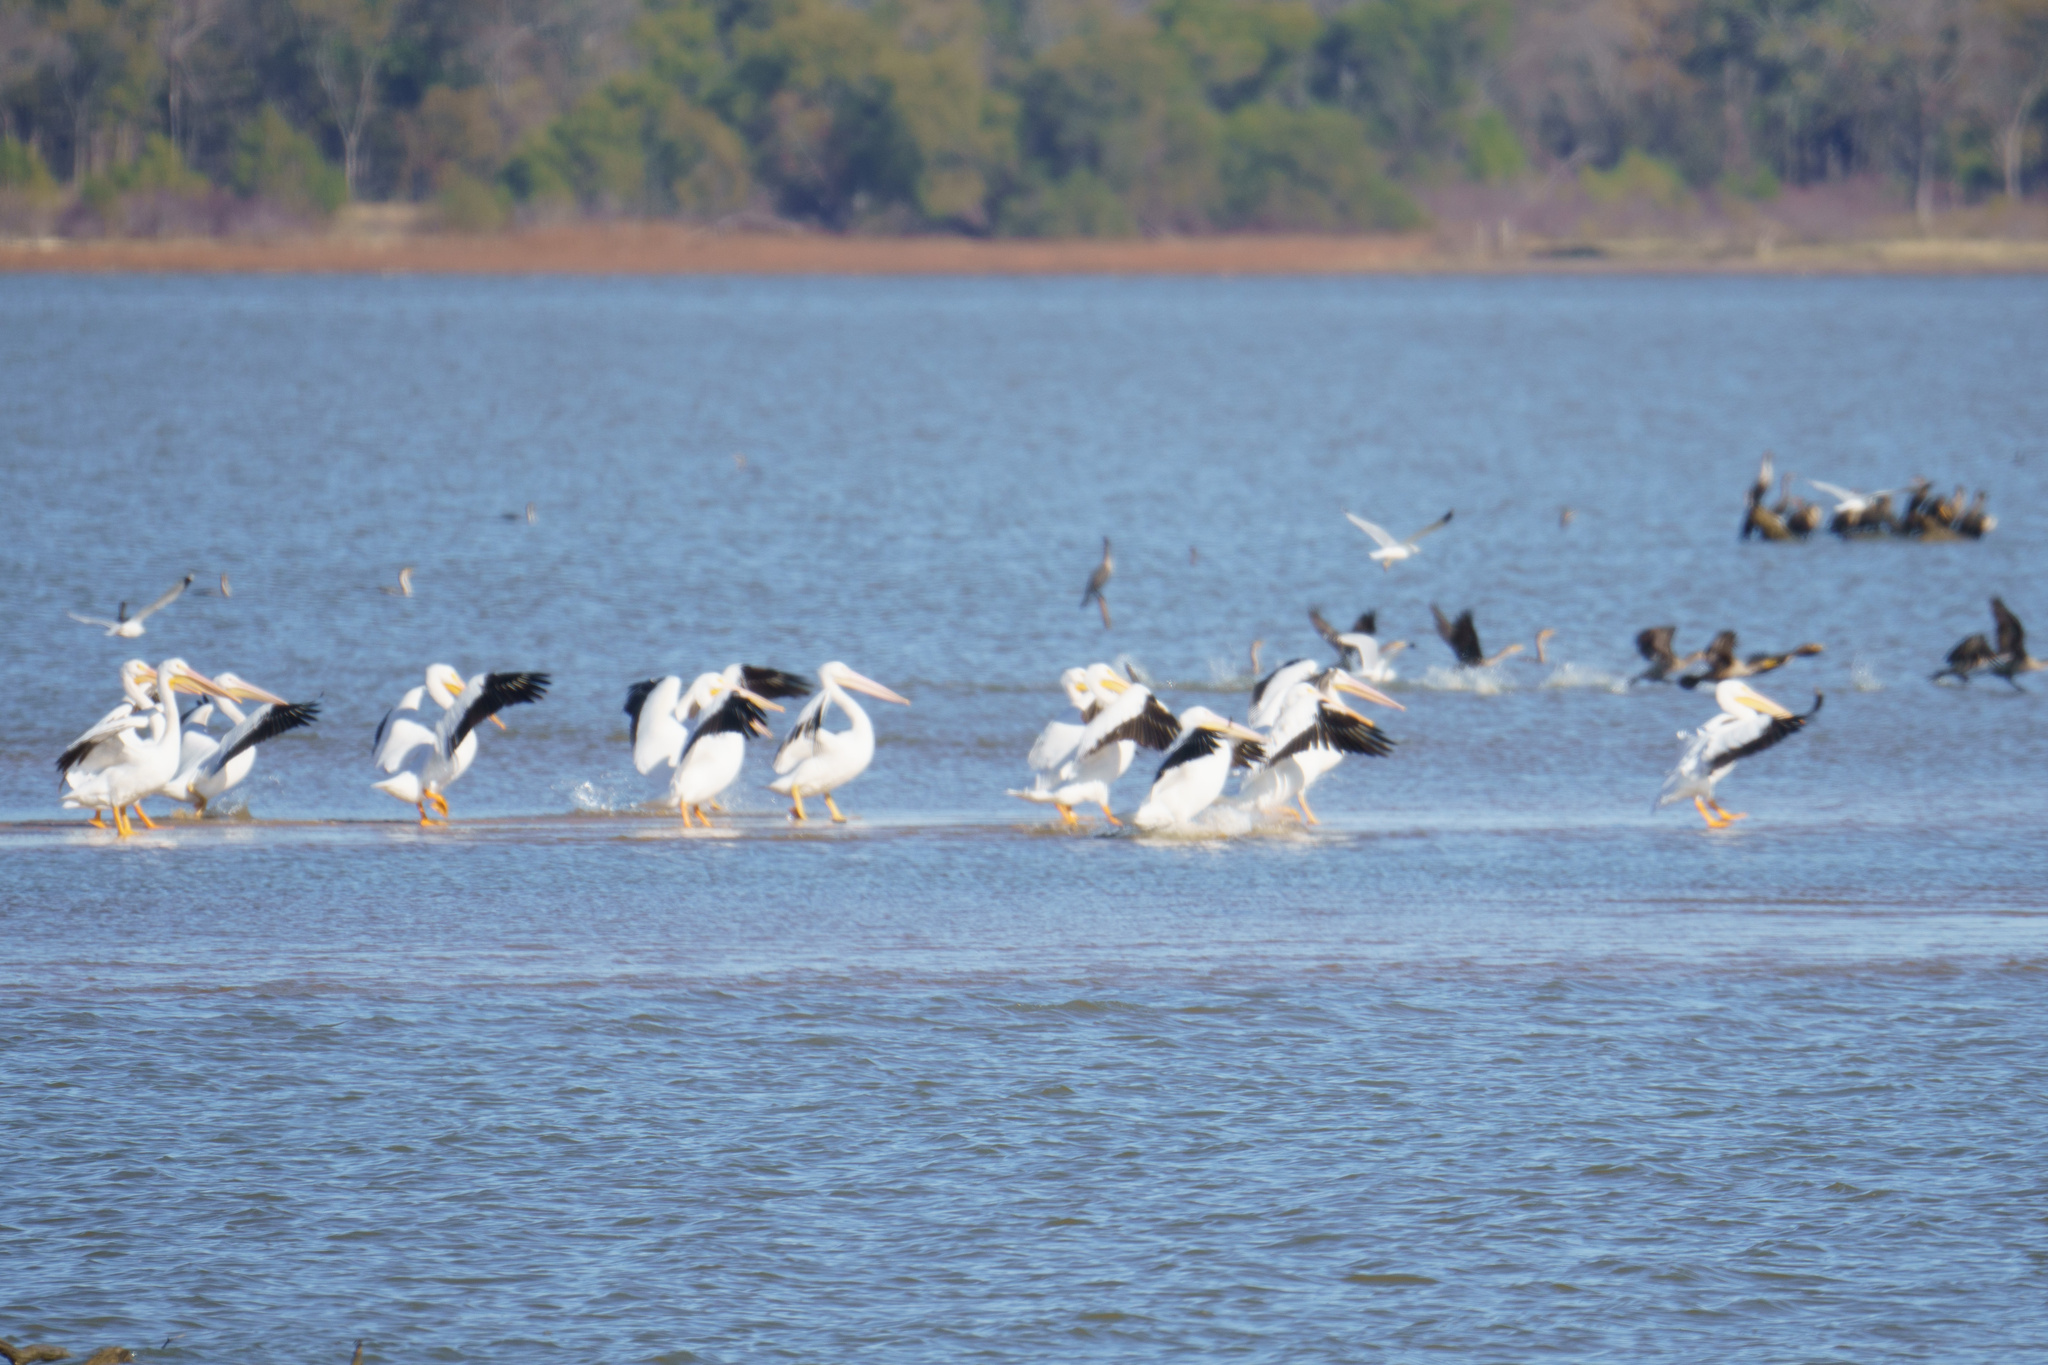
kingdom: Animalia
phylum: Chordata
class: Aves
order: Pelecaniformes
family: Pelecanidae
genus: Pelecanus
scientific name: Pelecanus erythrorhynchos
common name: American white pelican
